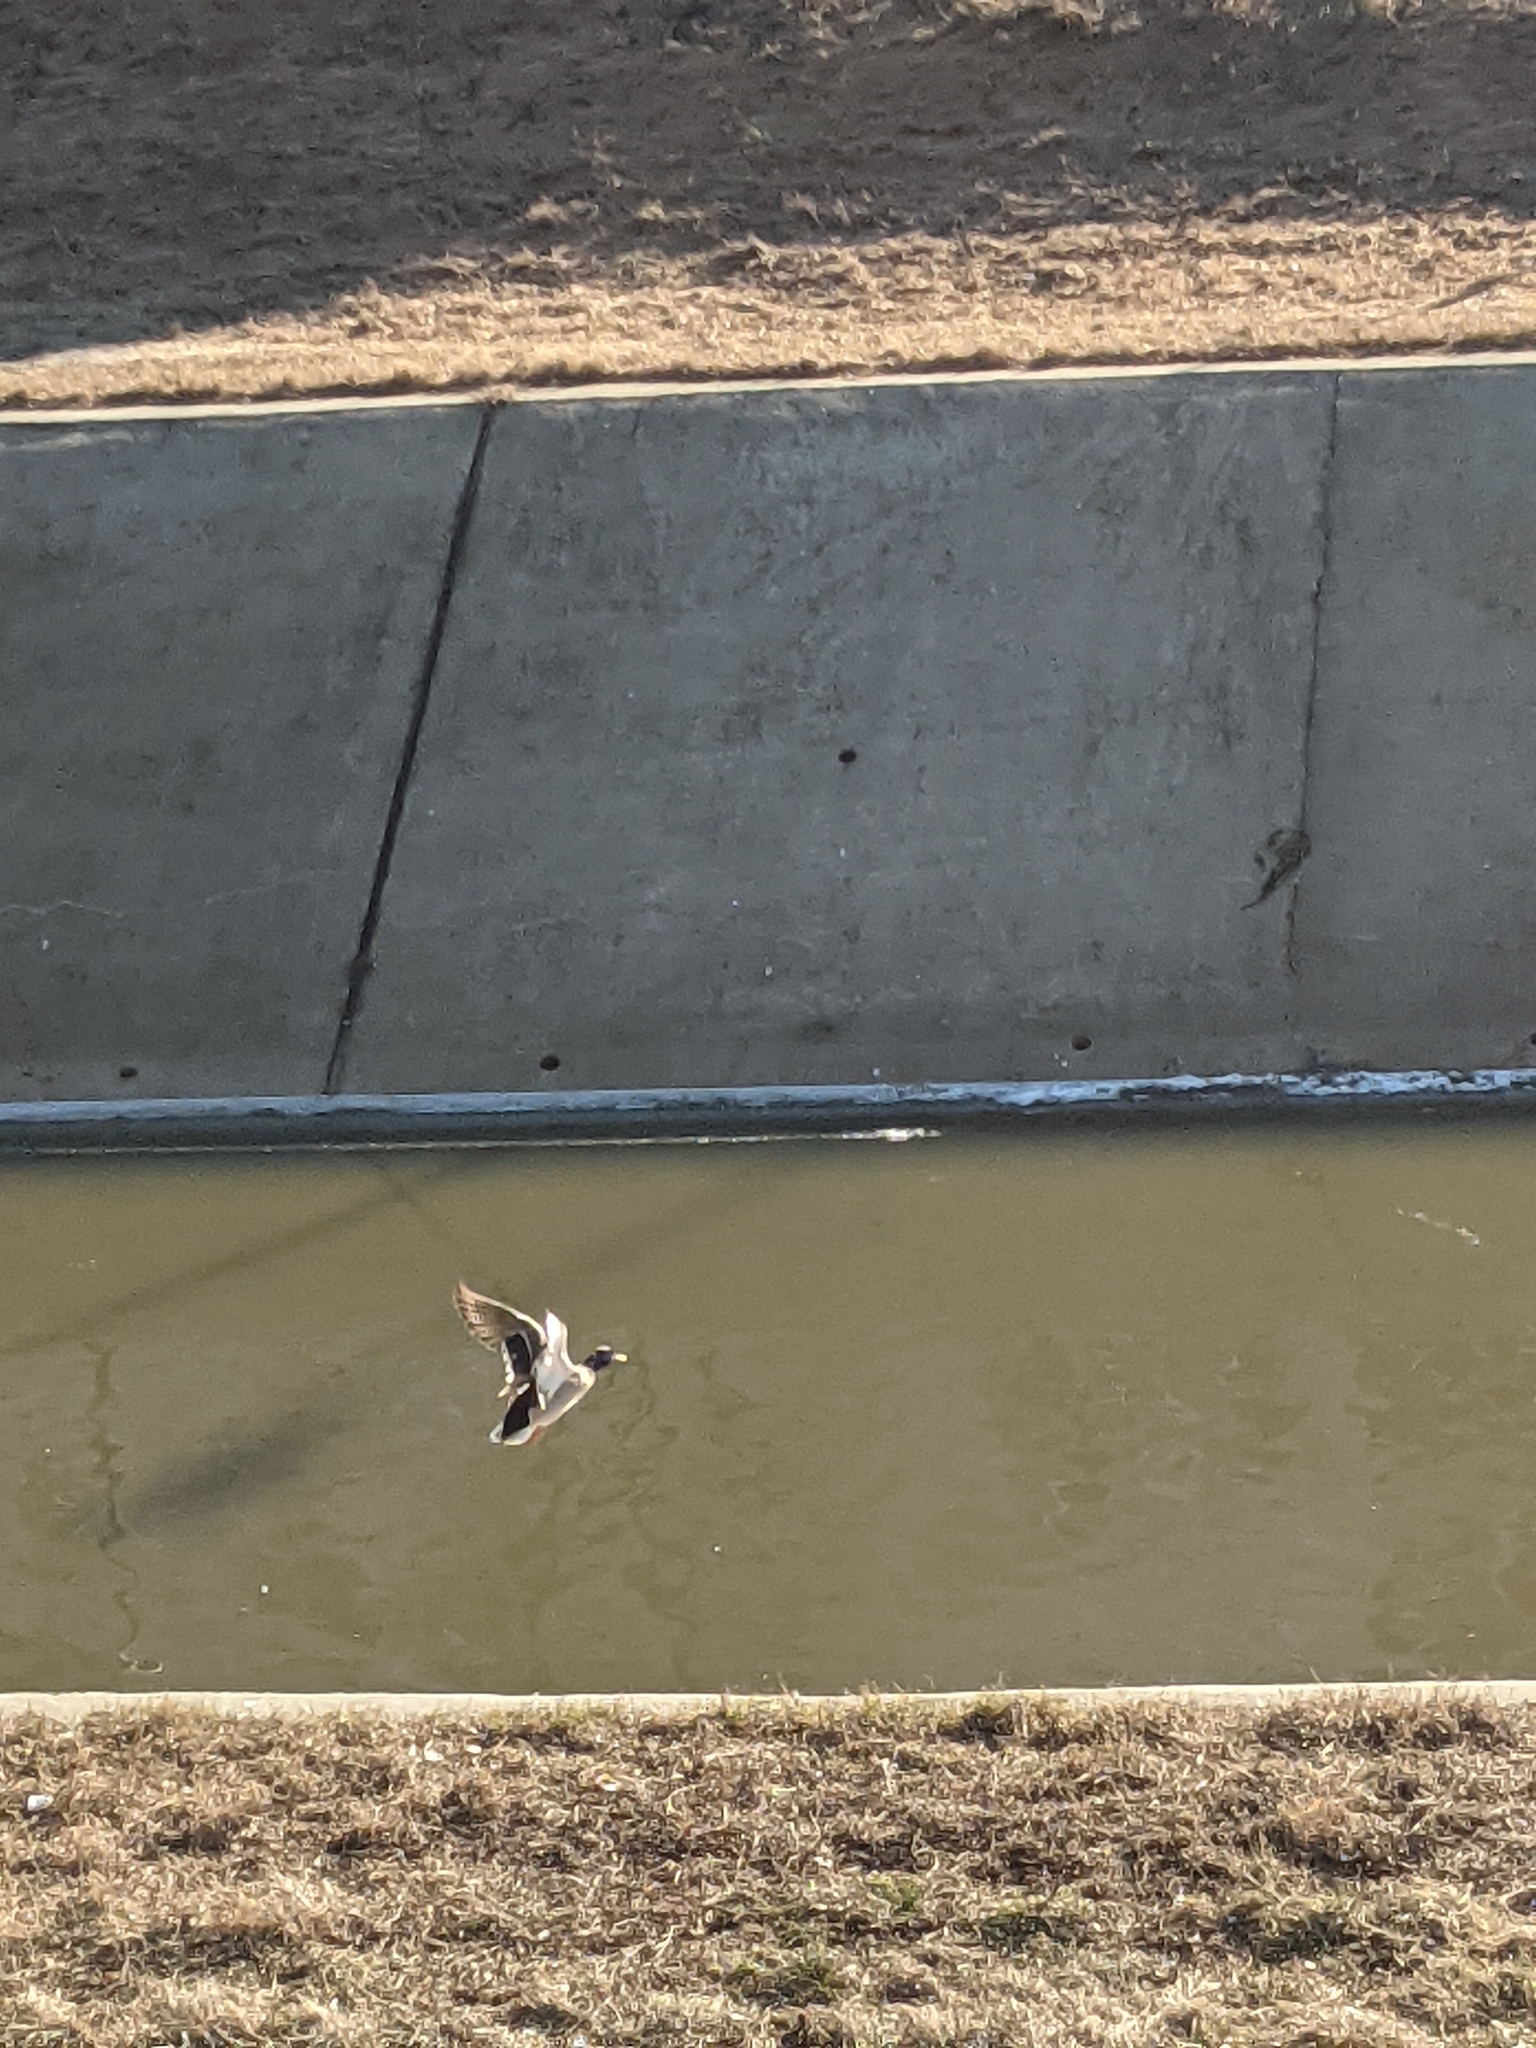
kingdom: Animalia
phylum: Chordata
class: Aves
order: Anseriformes
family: Anatidae
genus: Anas
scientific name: Anas platyrhynchos
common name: Mallard
